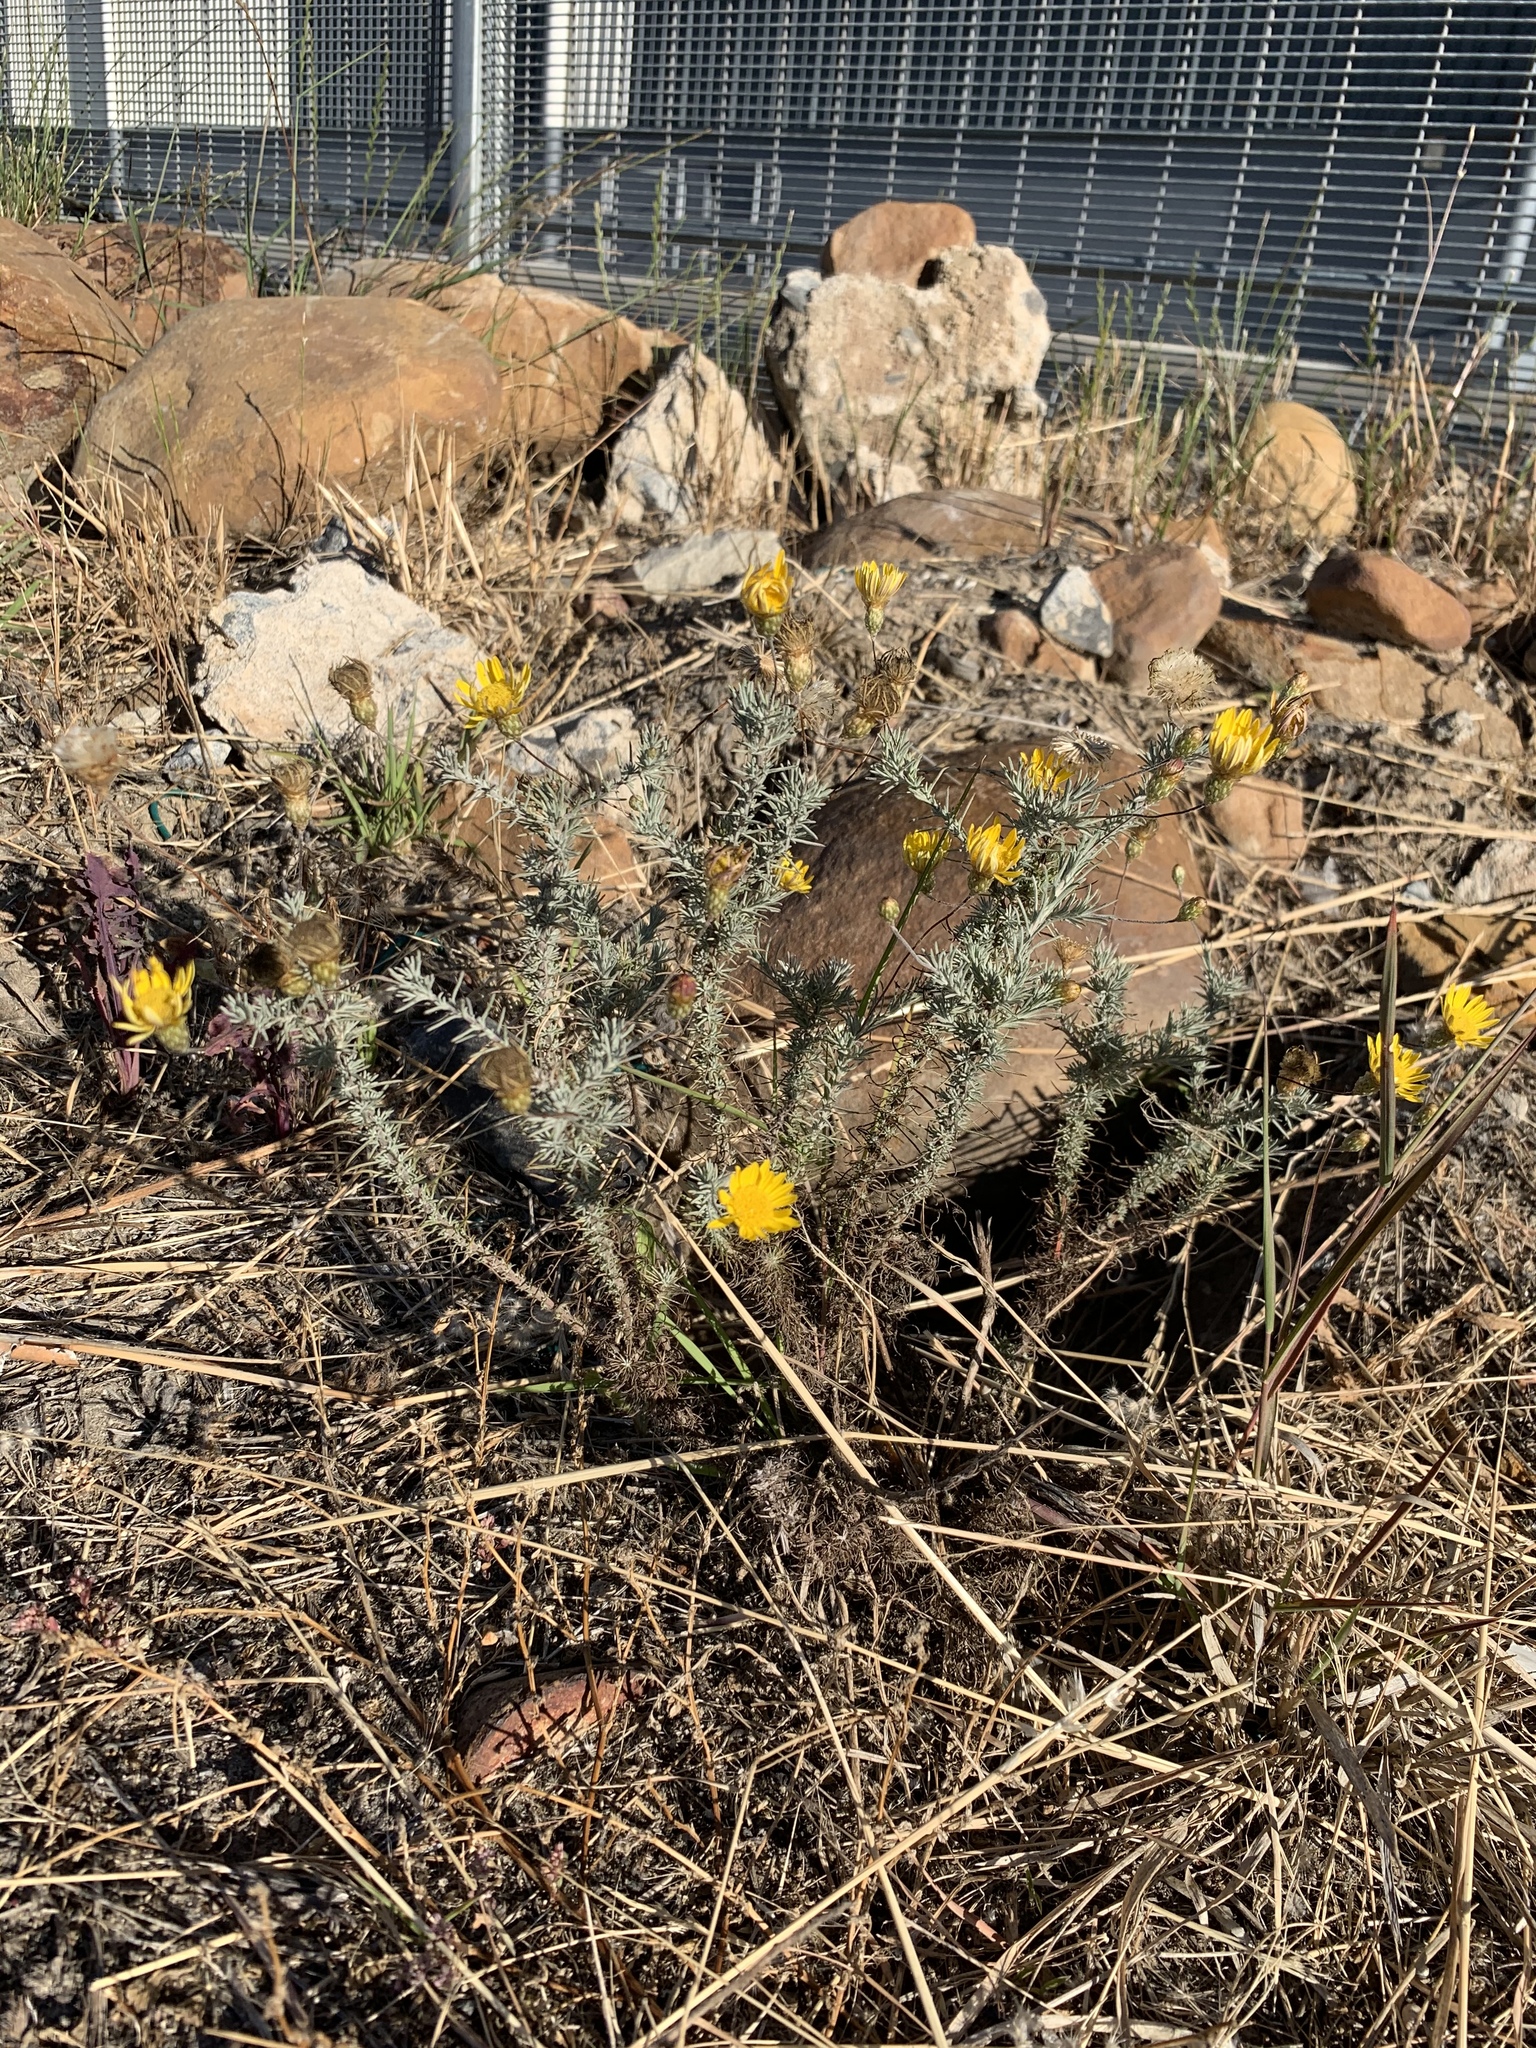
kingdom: Plantae
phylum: Tracheophyta
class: Magnoliopsida
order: Asterales
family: Asteraceae
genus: Leysera
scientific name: Leysera gnaphalodes
